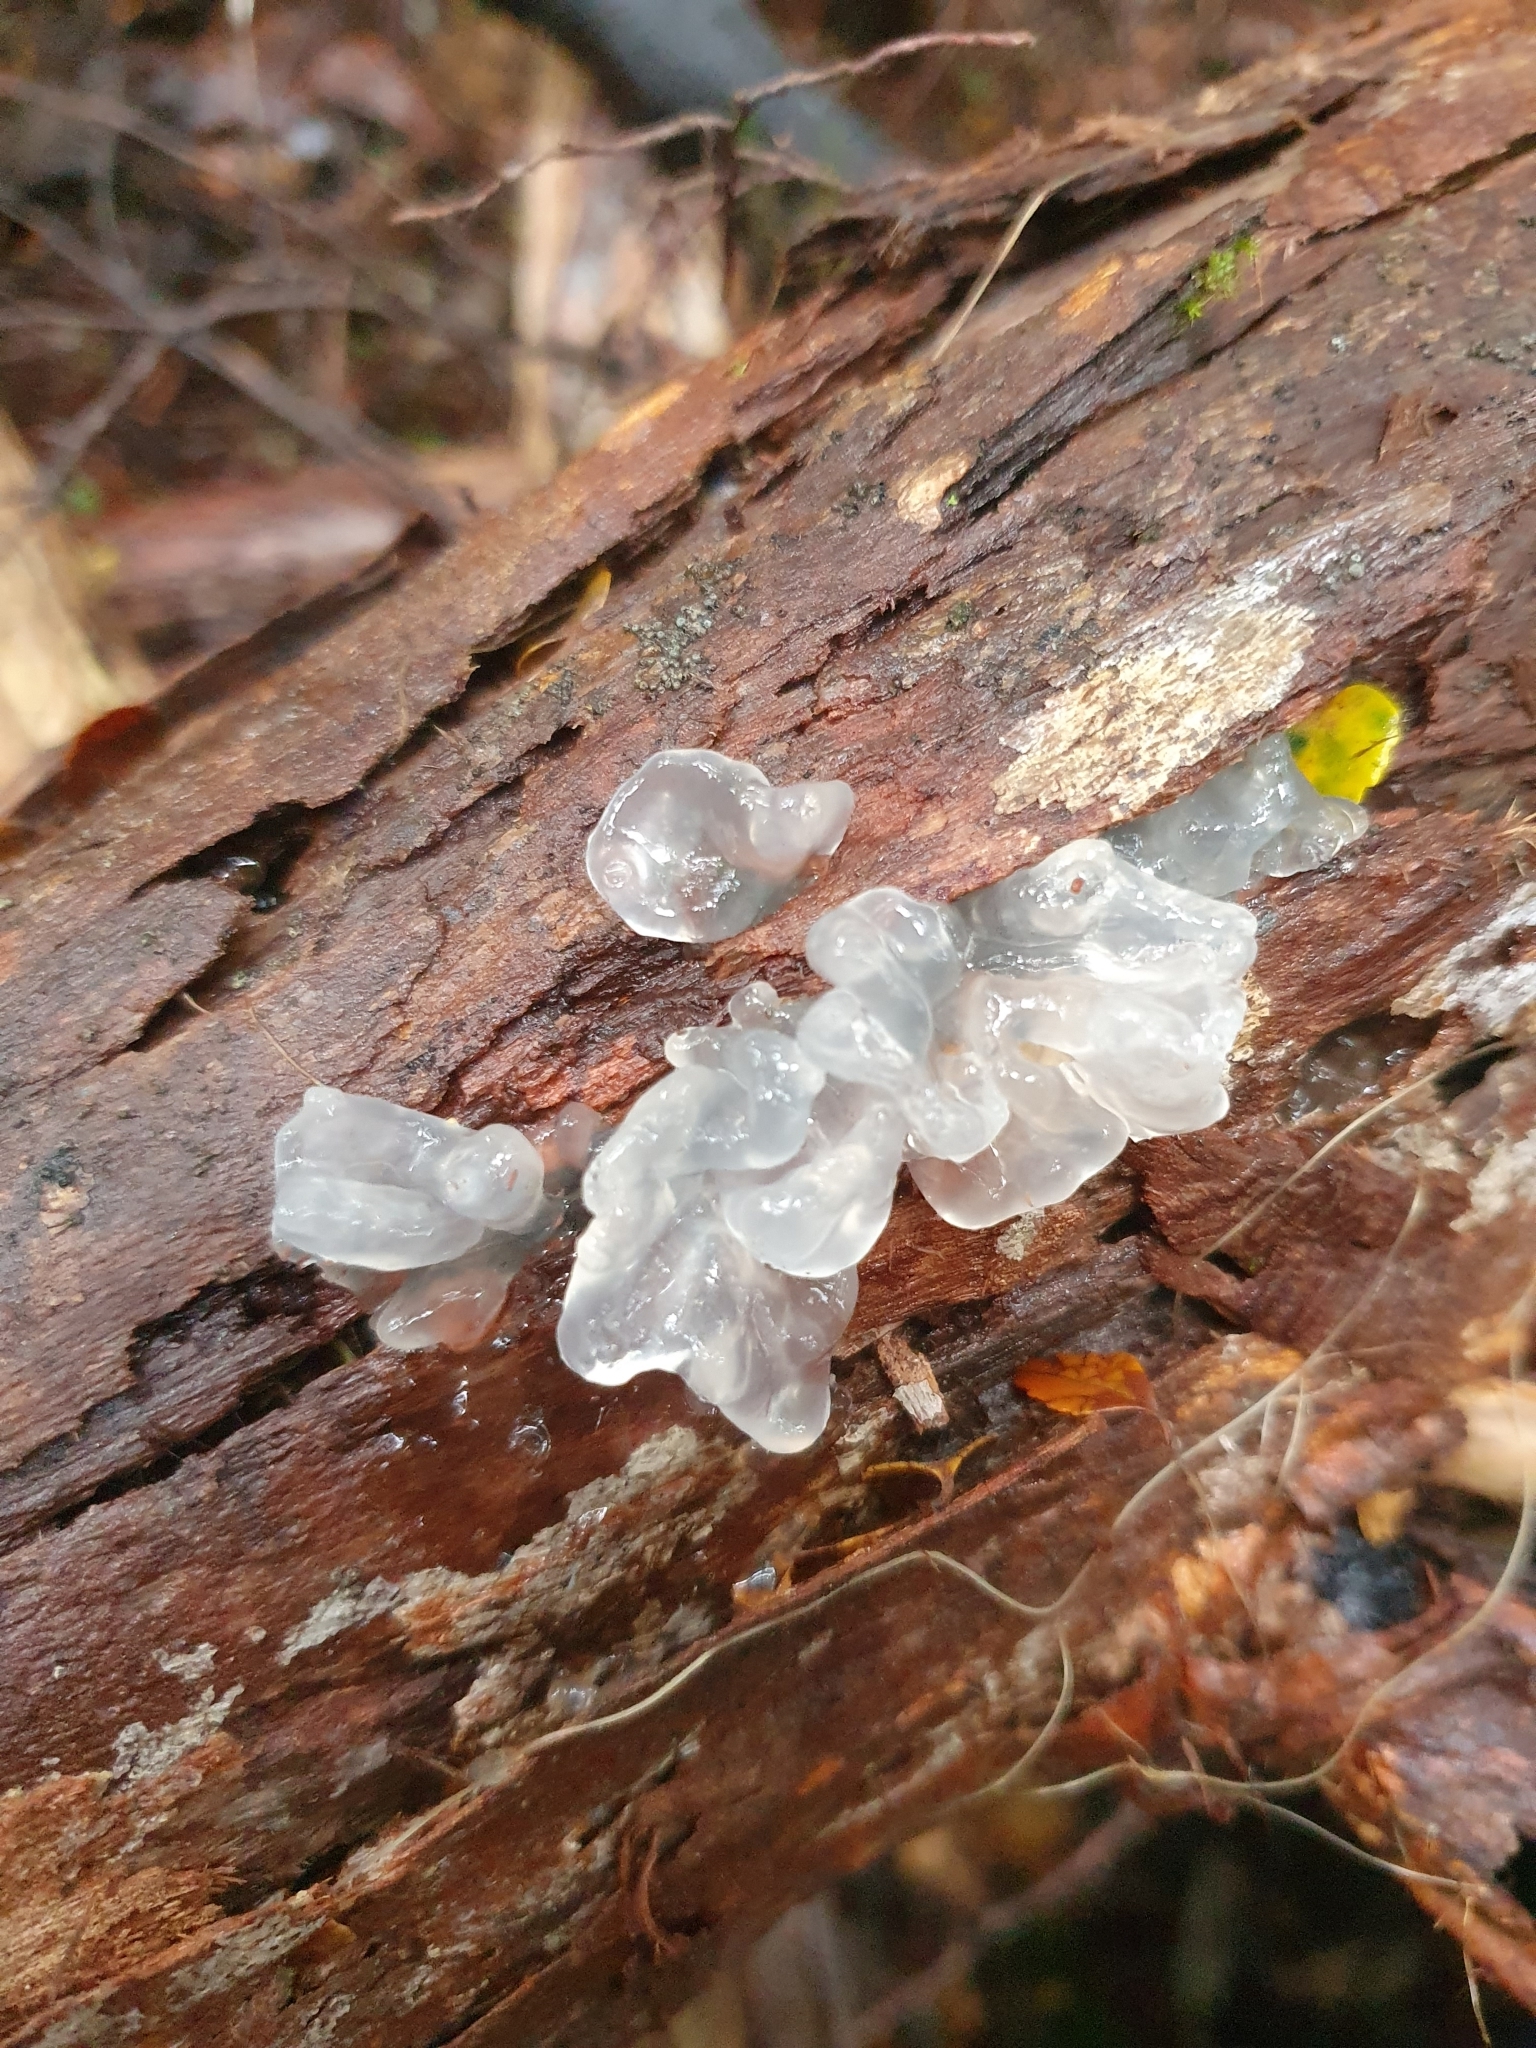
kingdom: Fungi
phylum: Basidiomycota
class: Tremellomycetes
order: Tremellales
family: Tremellaceae
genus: Tremella
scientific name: Tremella fuciformis
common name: Snow fungus
